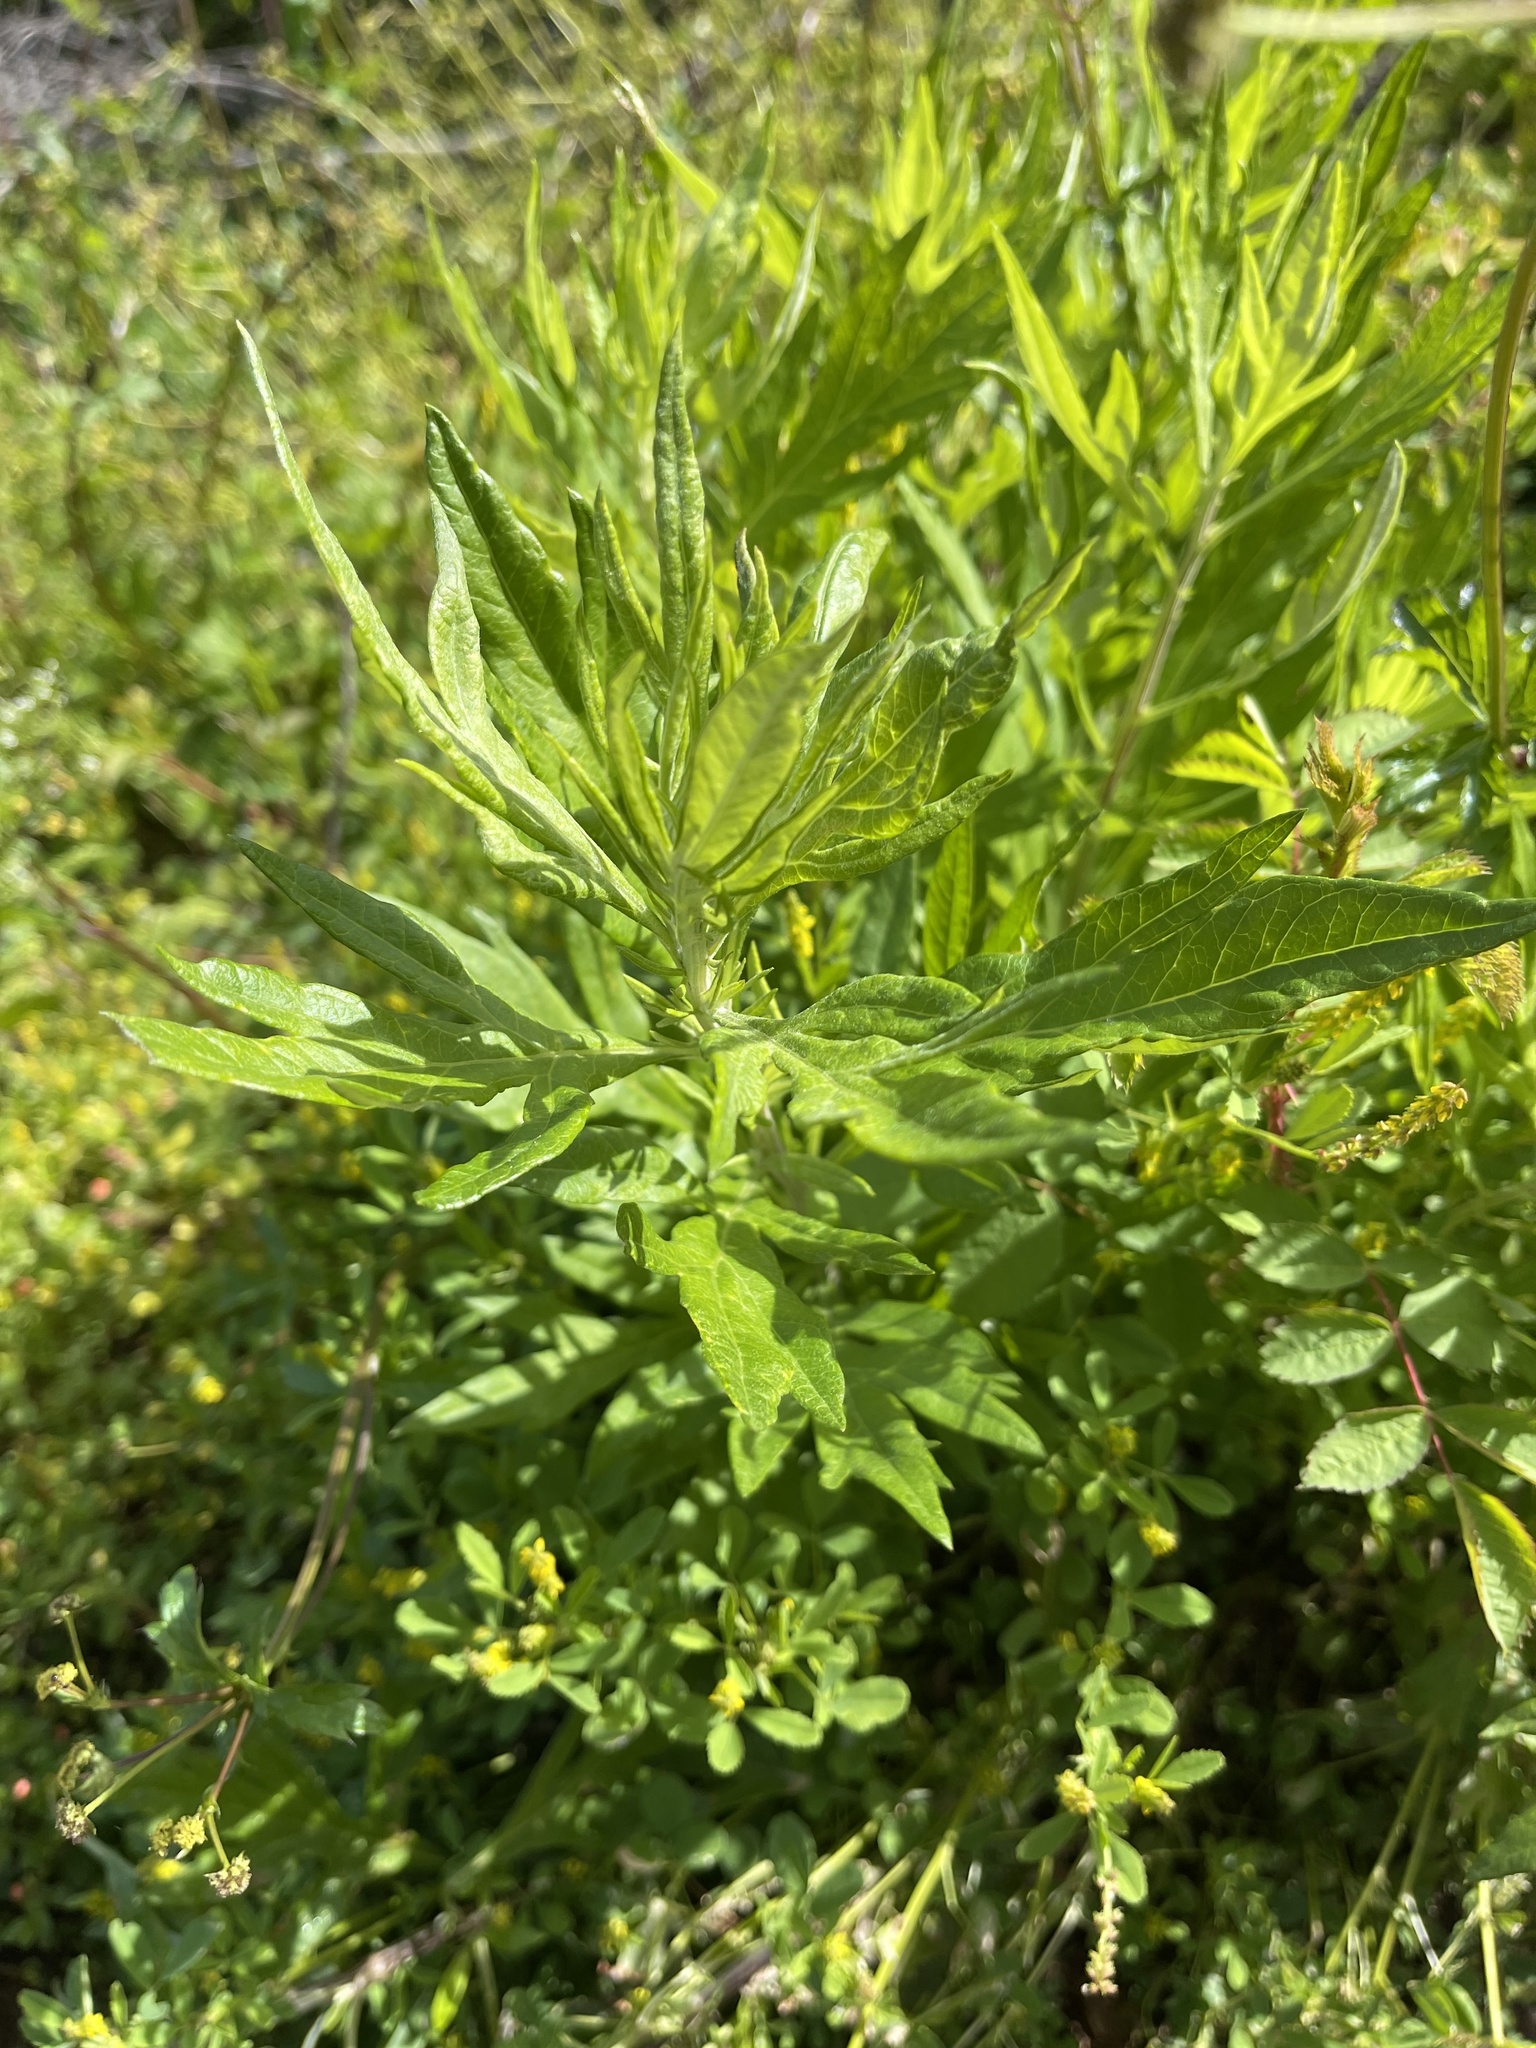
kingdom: Plantae
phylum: Tracheophyta
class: Magnoliopsida
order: Asterales
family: Asteraceae
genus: Artemisia
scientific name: Artemisia douglasiana
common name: Northwest mugwort
